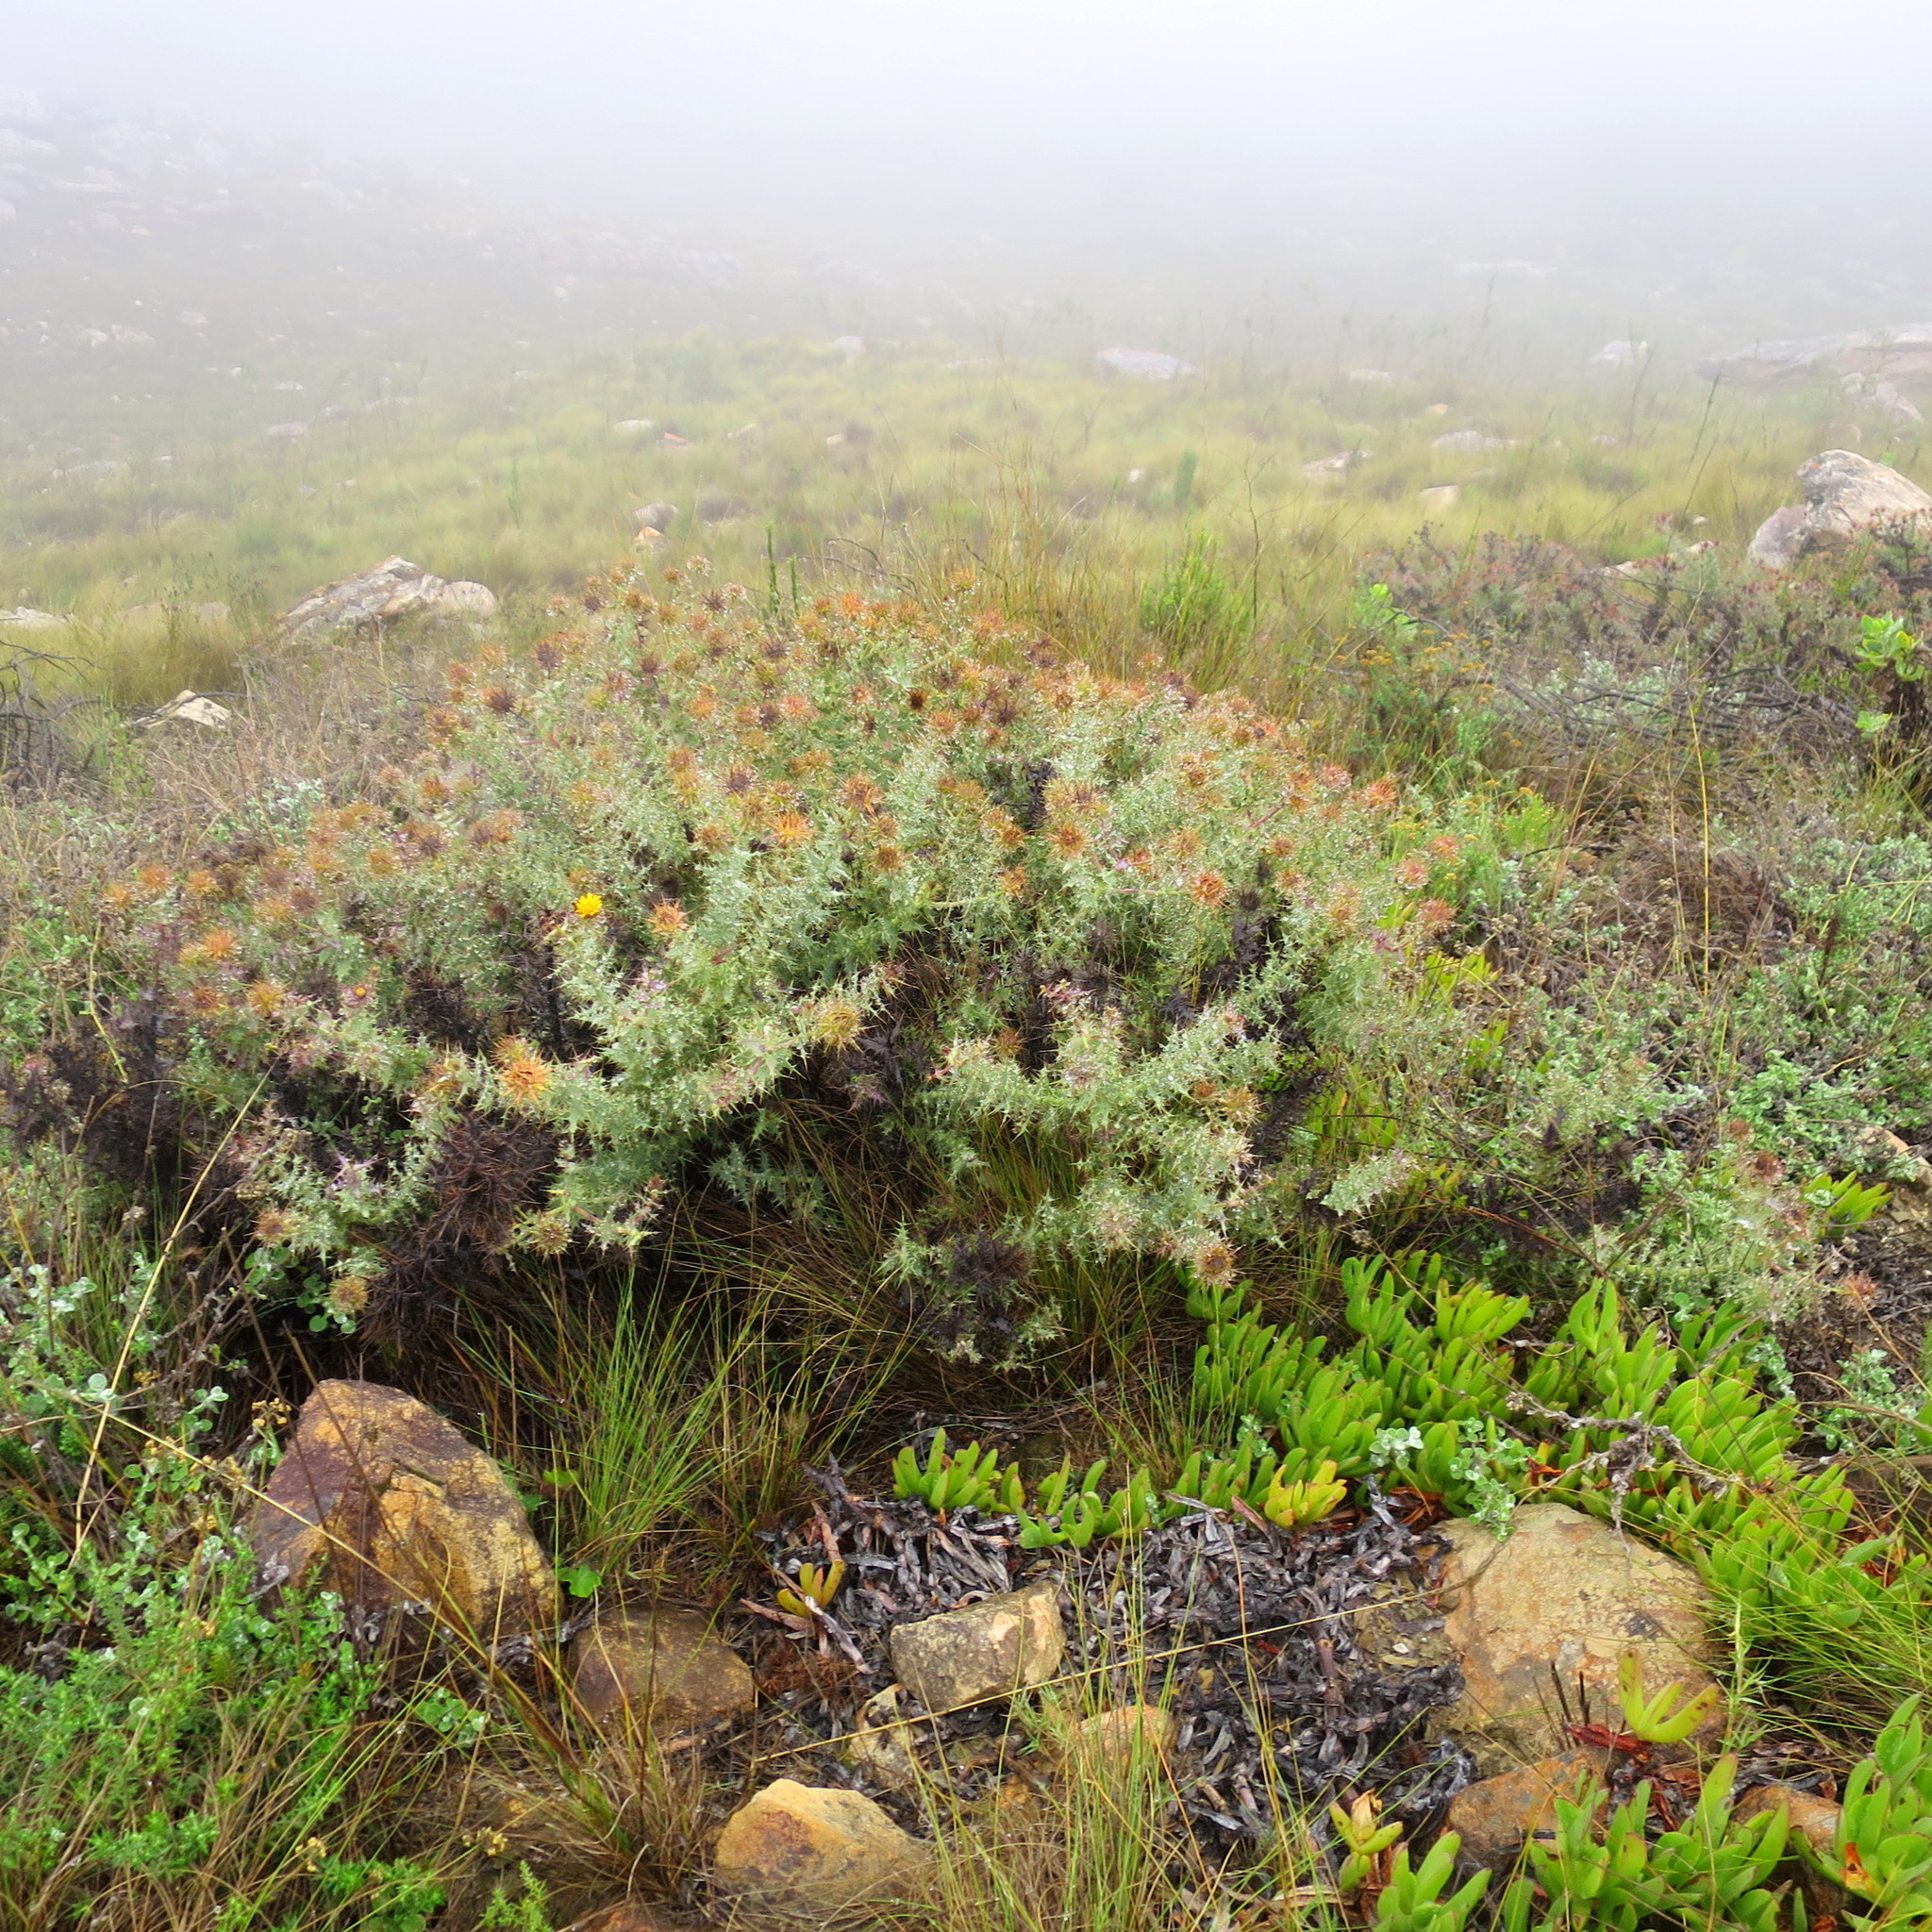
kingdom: Plantae
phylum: Tracheophyta
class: Magnoliopsida
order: Asterales
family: Asteraceae
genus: Berkheya
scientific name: Berkheya cruciata
